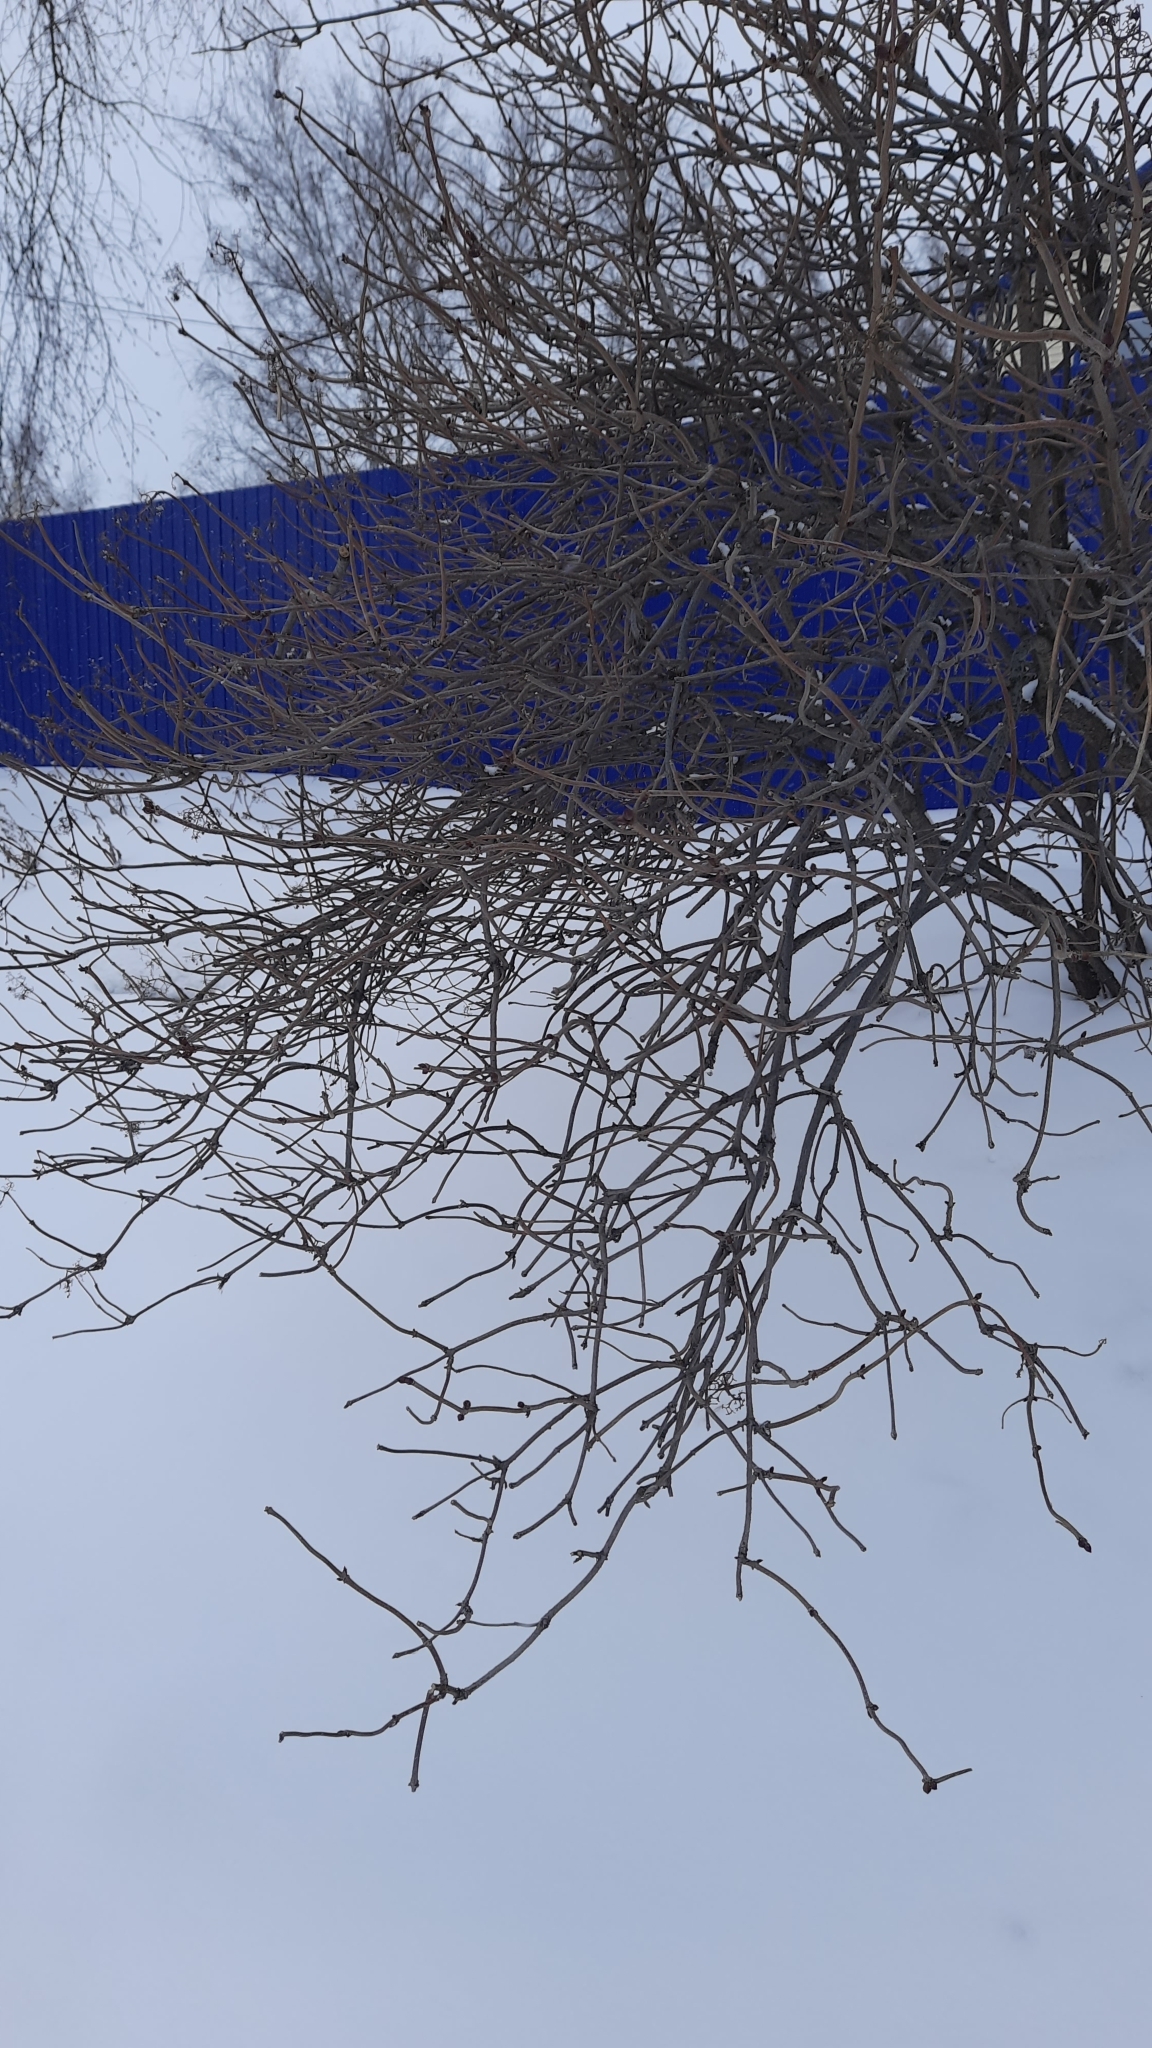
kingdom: Plantae
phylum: Tracheophyta
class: Magnoliopsida
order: Dipsacales
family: Viburnaceae
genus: Sambucus
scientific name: Sambucus sibirica
